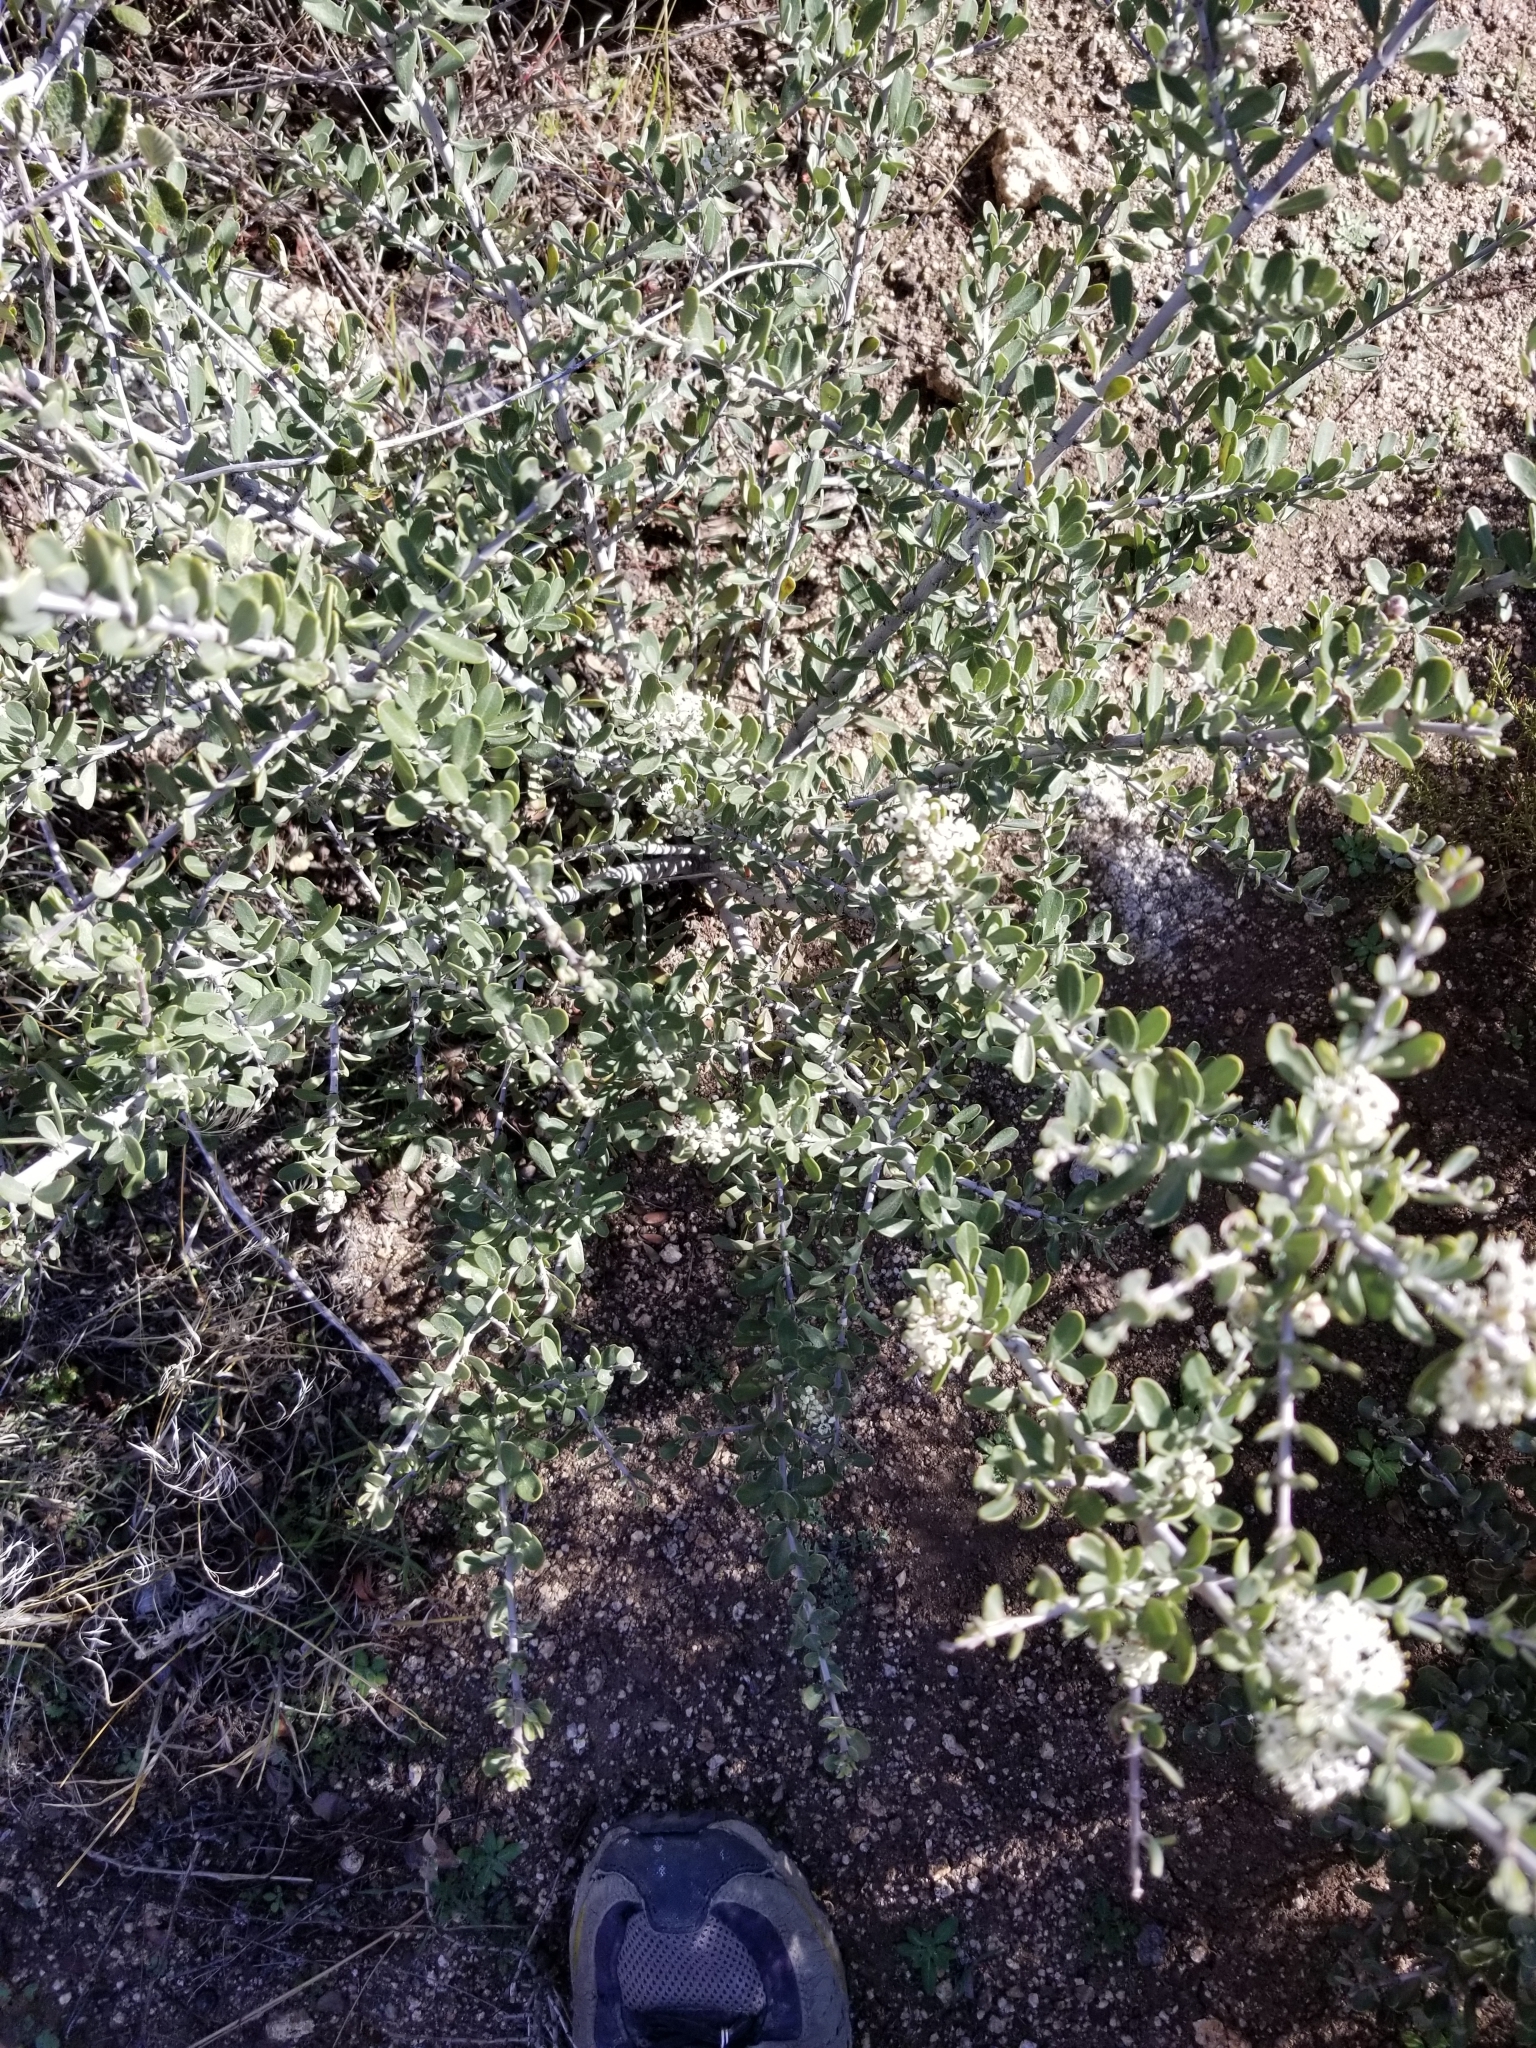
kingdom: Plantae
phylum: Tracheophyta
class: Magnoliopsida
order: Rosales
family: Rhamnaceae
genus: Ceanothus
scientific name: Ceanothus cuneatus
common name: Cuneate ceanothus
